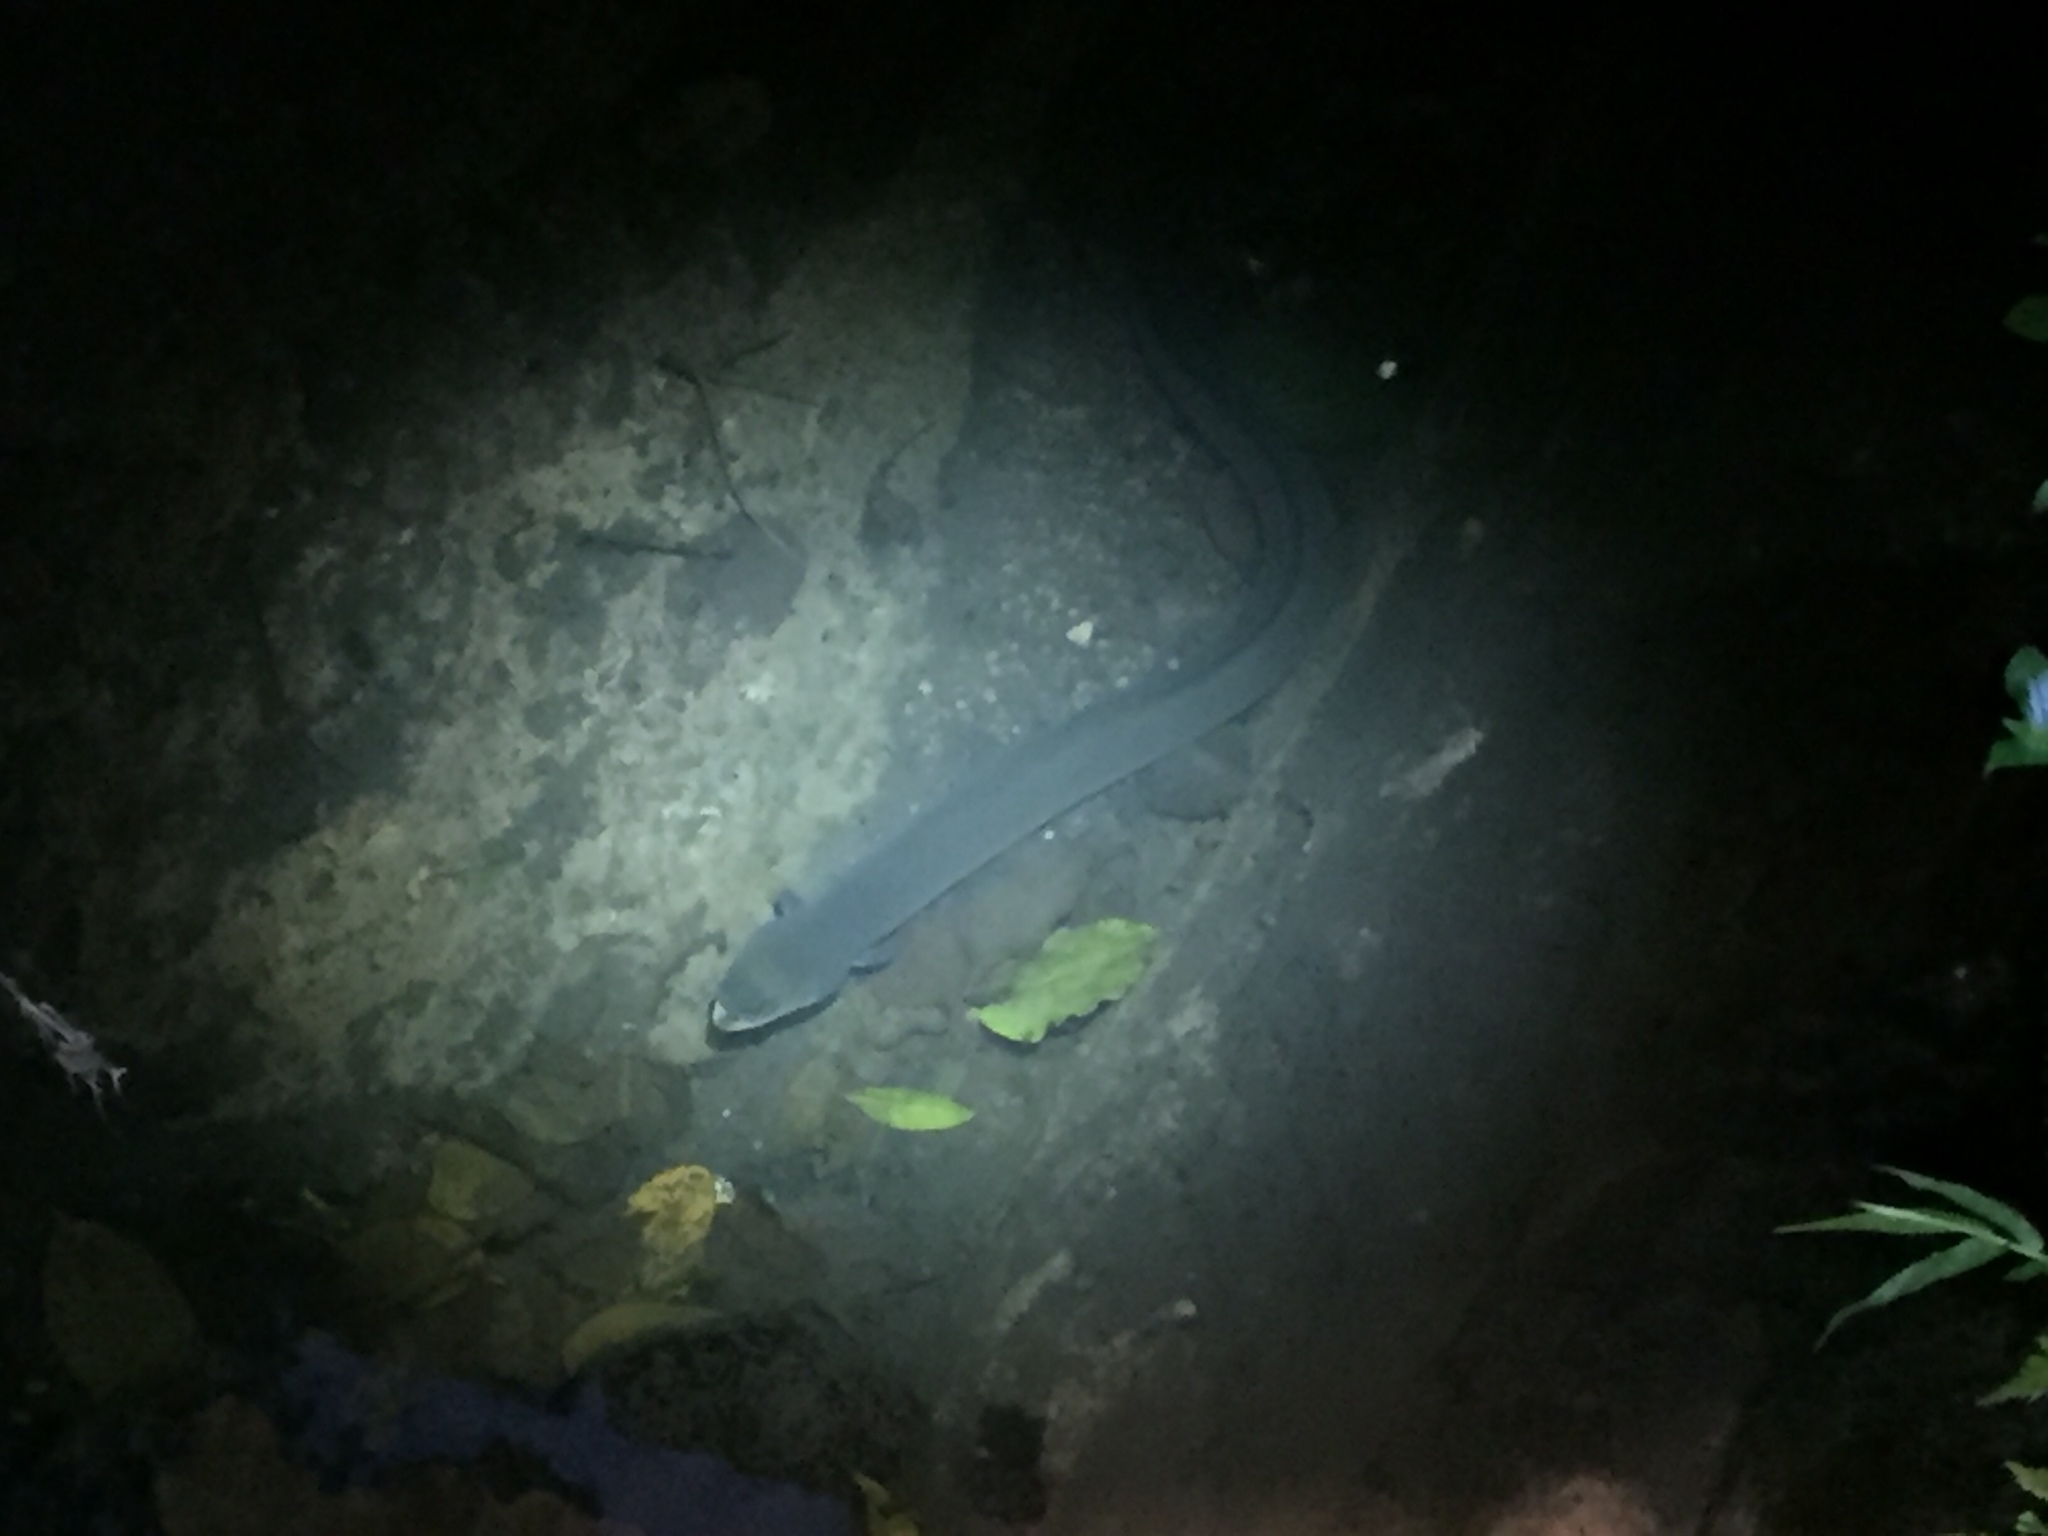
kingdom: Animalia
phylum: Chordata
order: Anguilliformes
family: Anguillidae
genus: Anguilla
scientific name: Anguilla australis
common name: Shortfin eel
